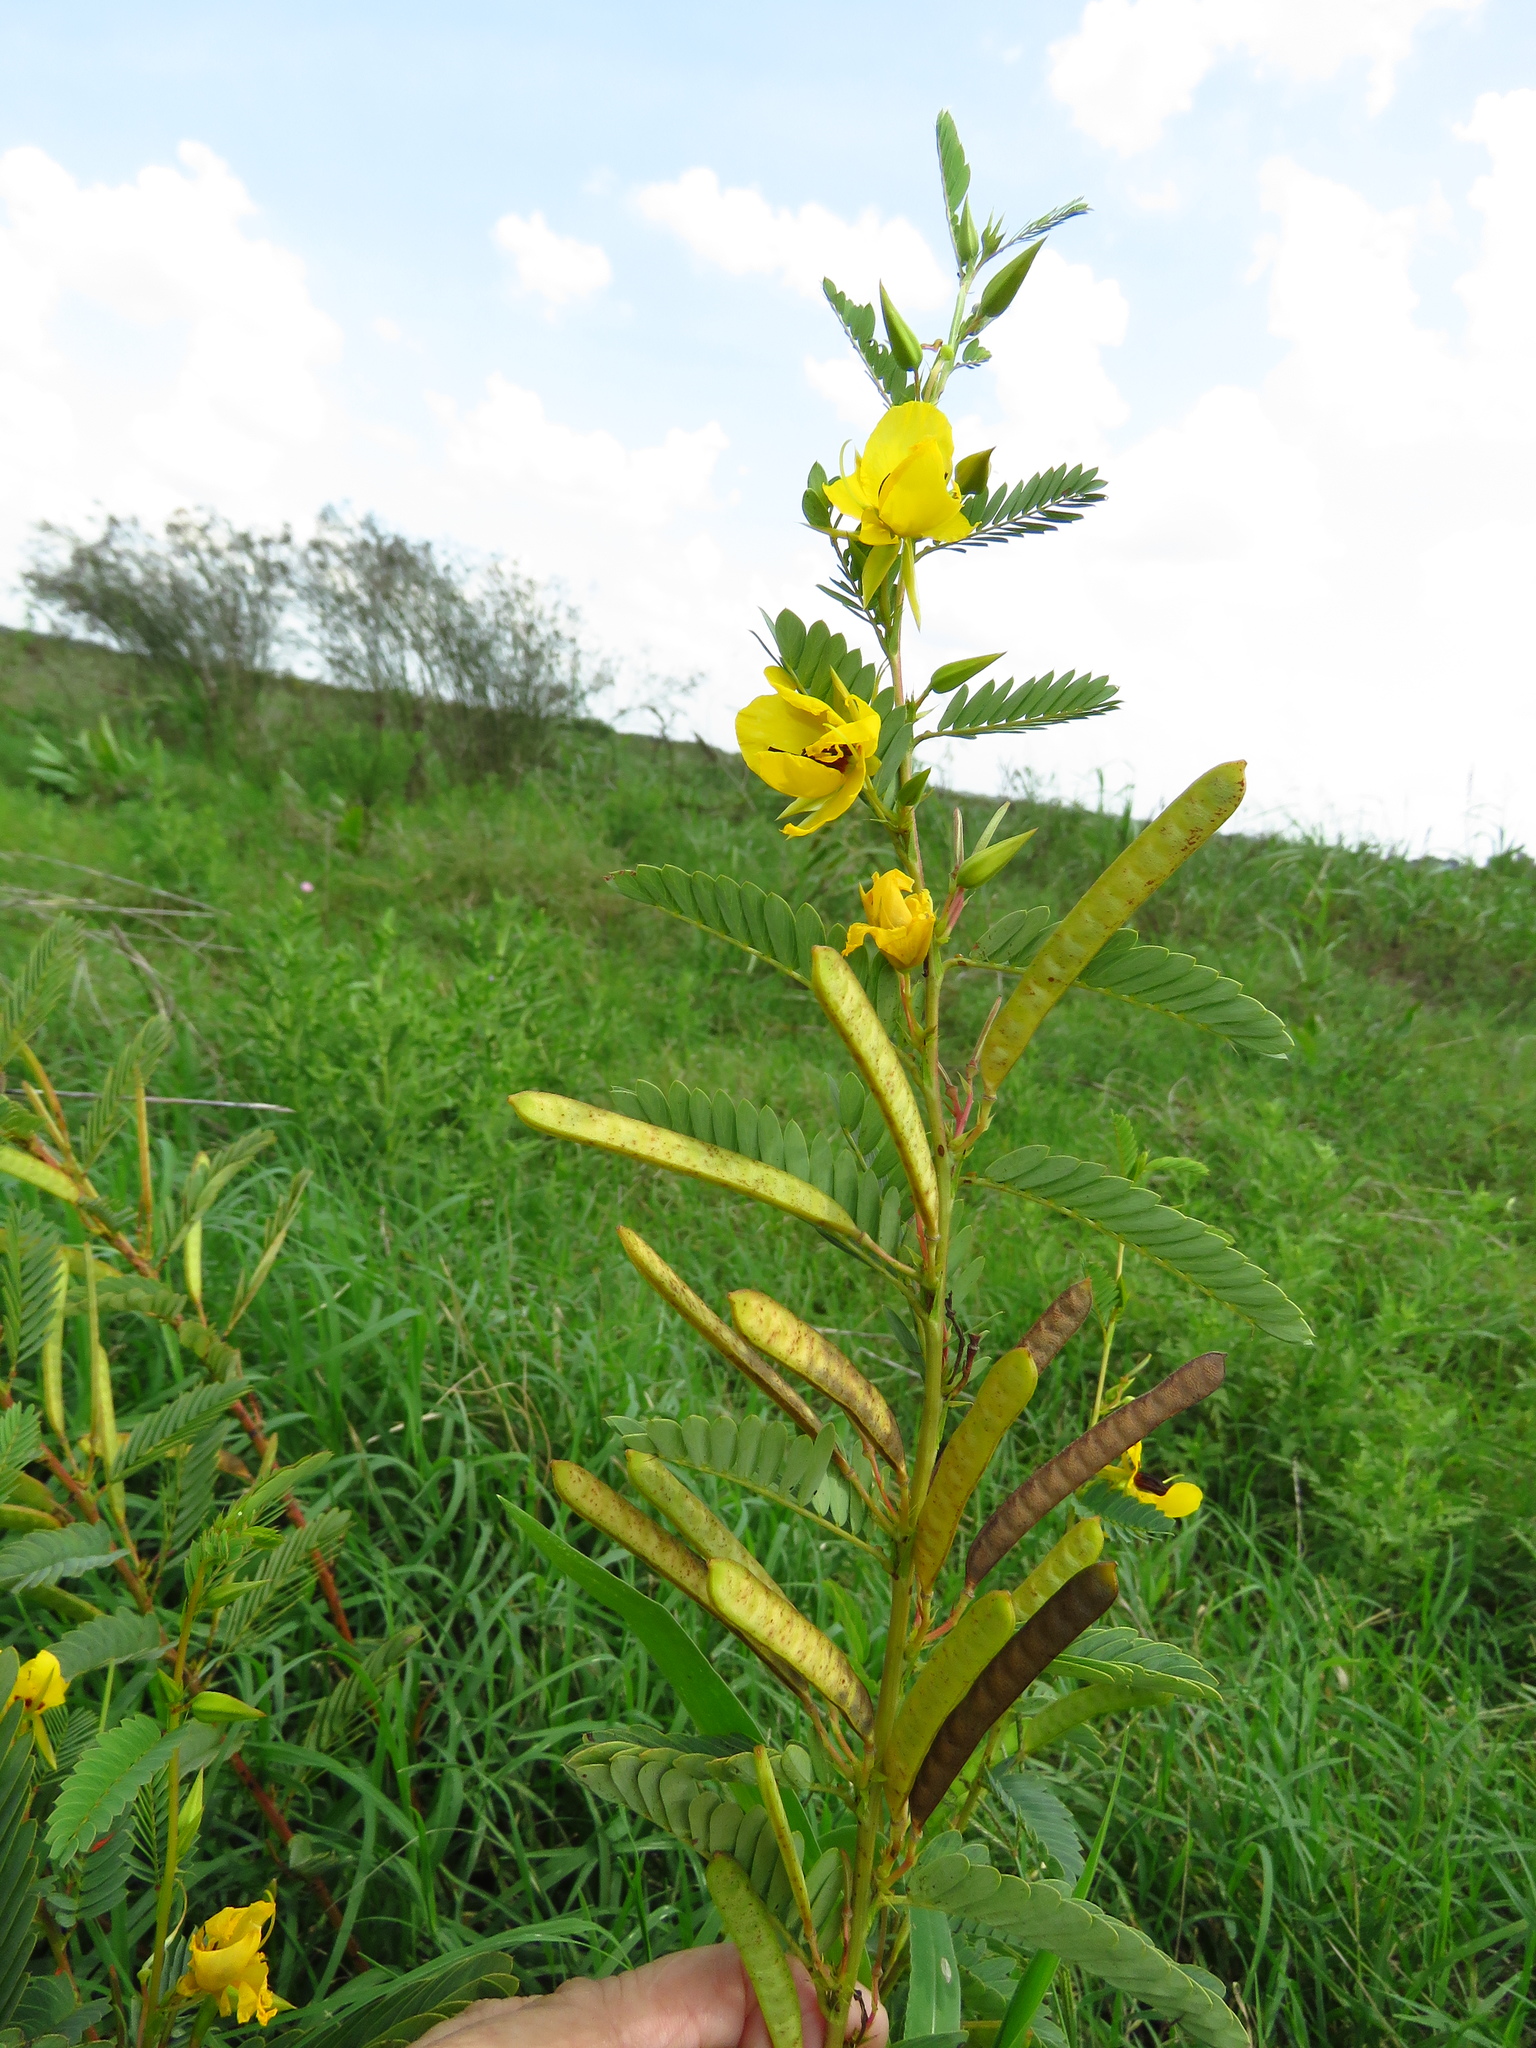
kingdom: Plantae
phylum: Tracheophyta
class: Magnoliopsida
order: Fabales
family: Fabaceae
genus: Chamaecrista
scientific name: Chamaecrista fasciculata
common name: Golden cassia
